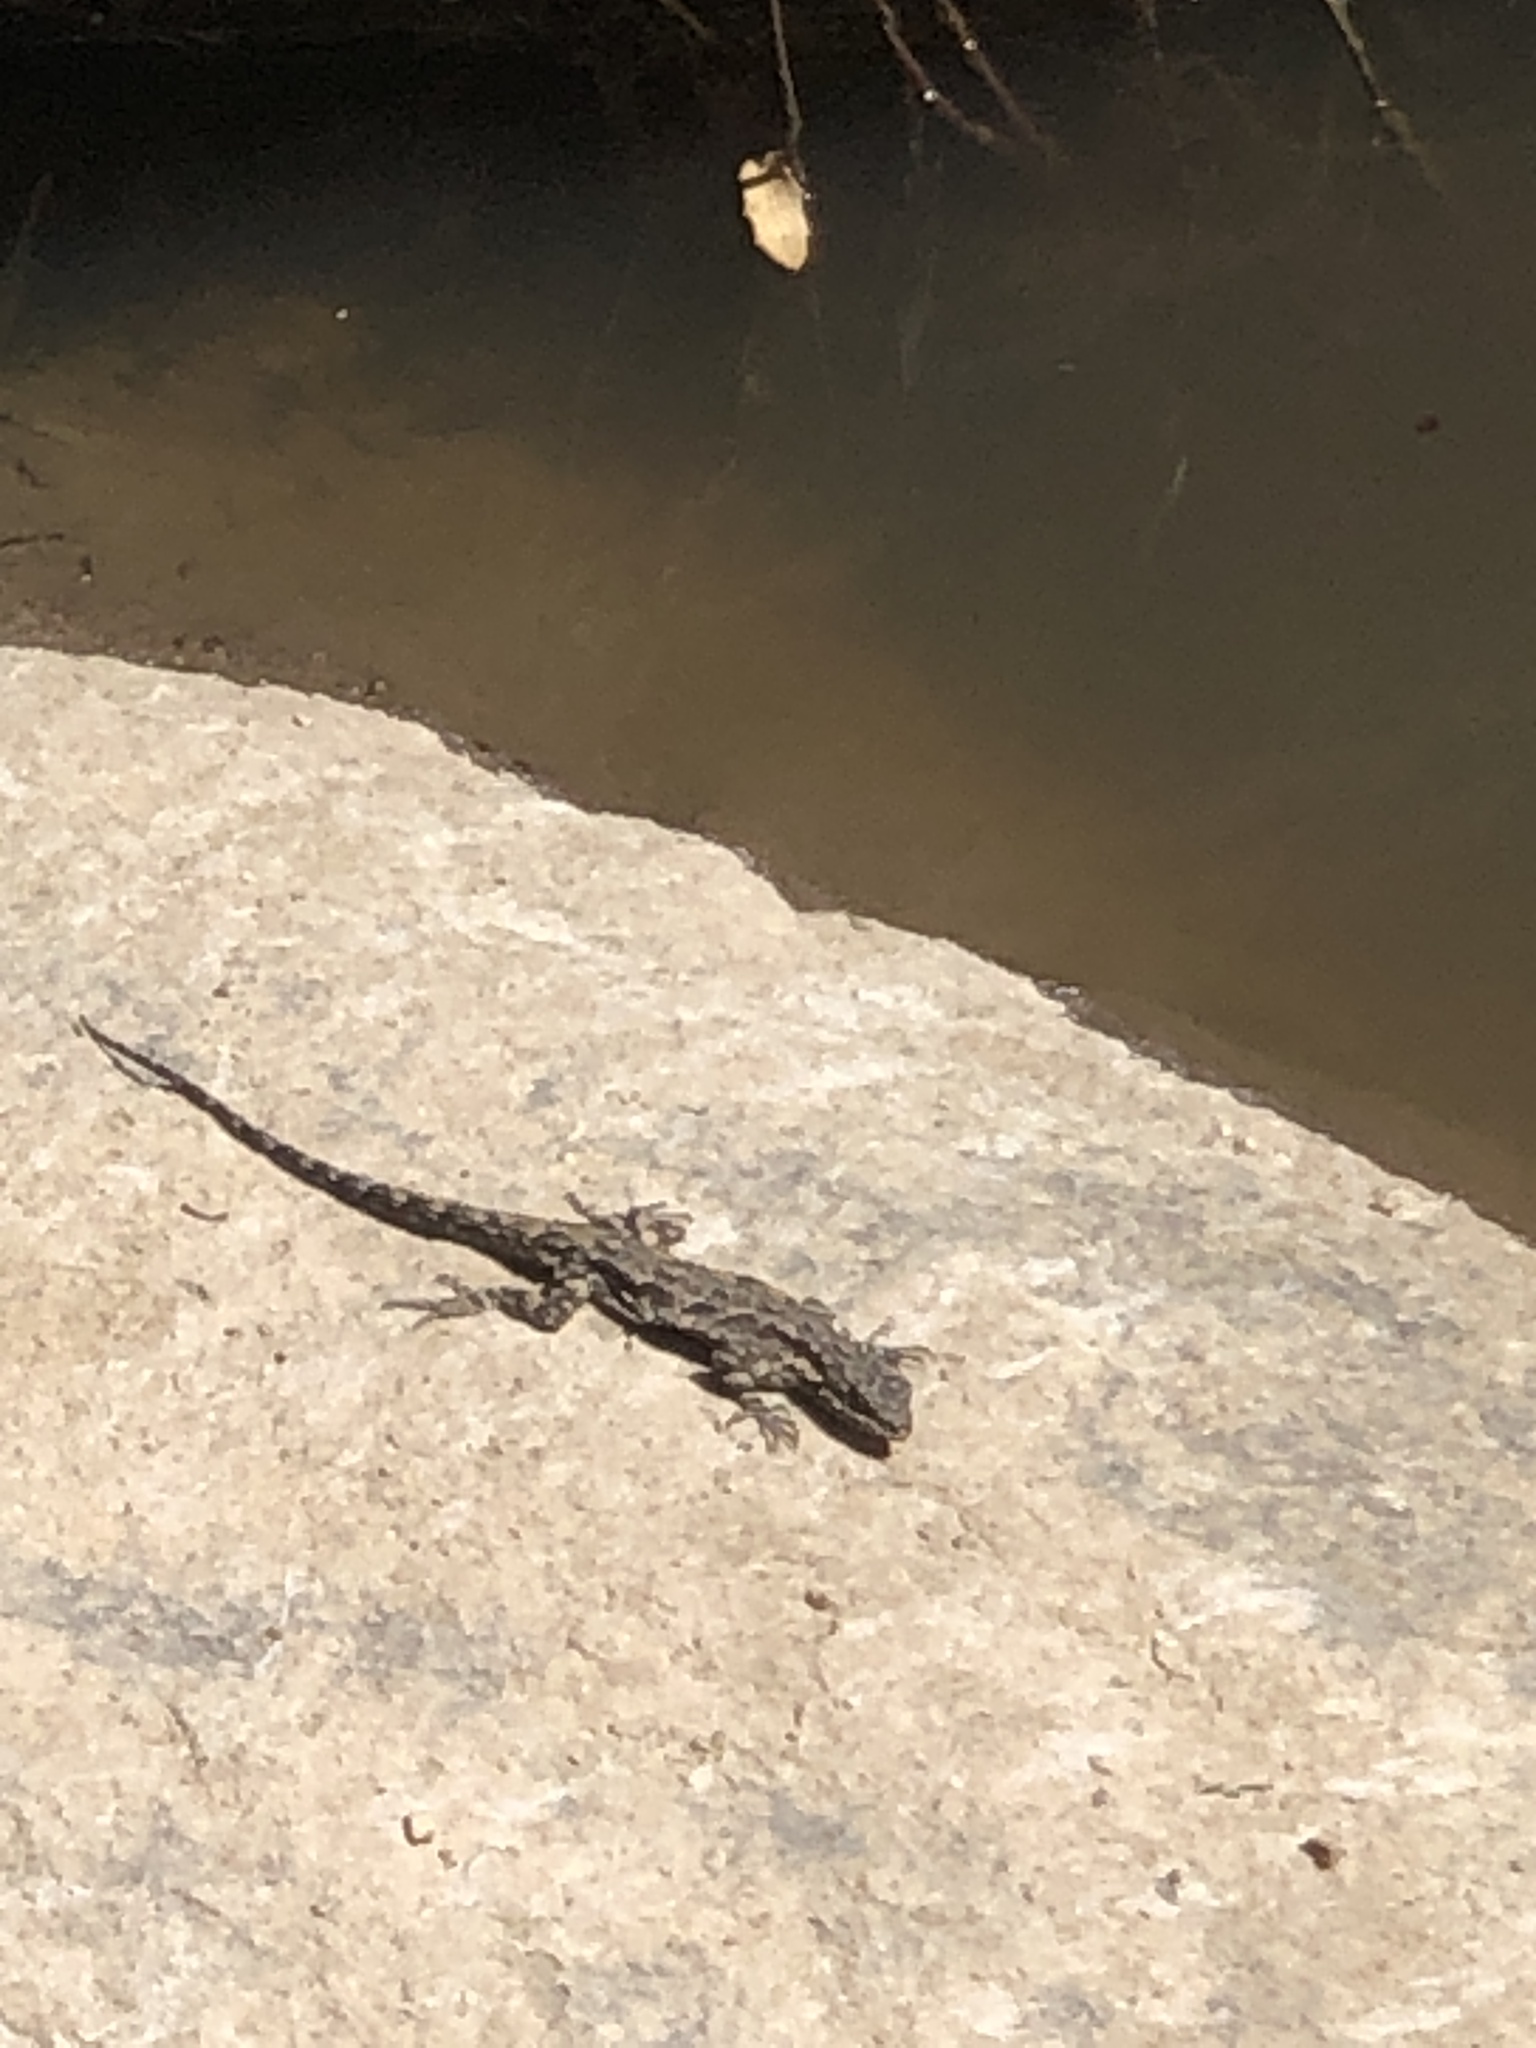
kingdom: Animalia
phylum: Chordata
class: Squamata
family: Phrynosomatidae
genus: Urosaurus
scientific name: Urosaurus ornatus
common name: Ornate tree lizard
